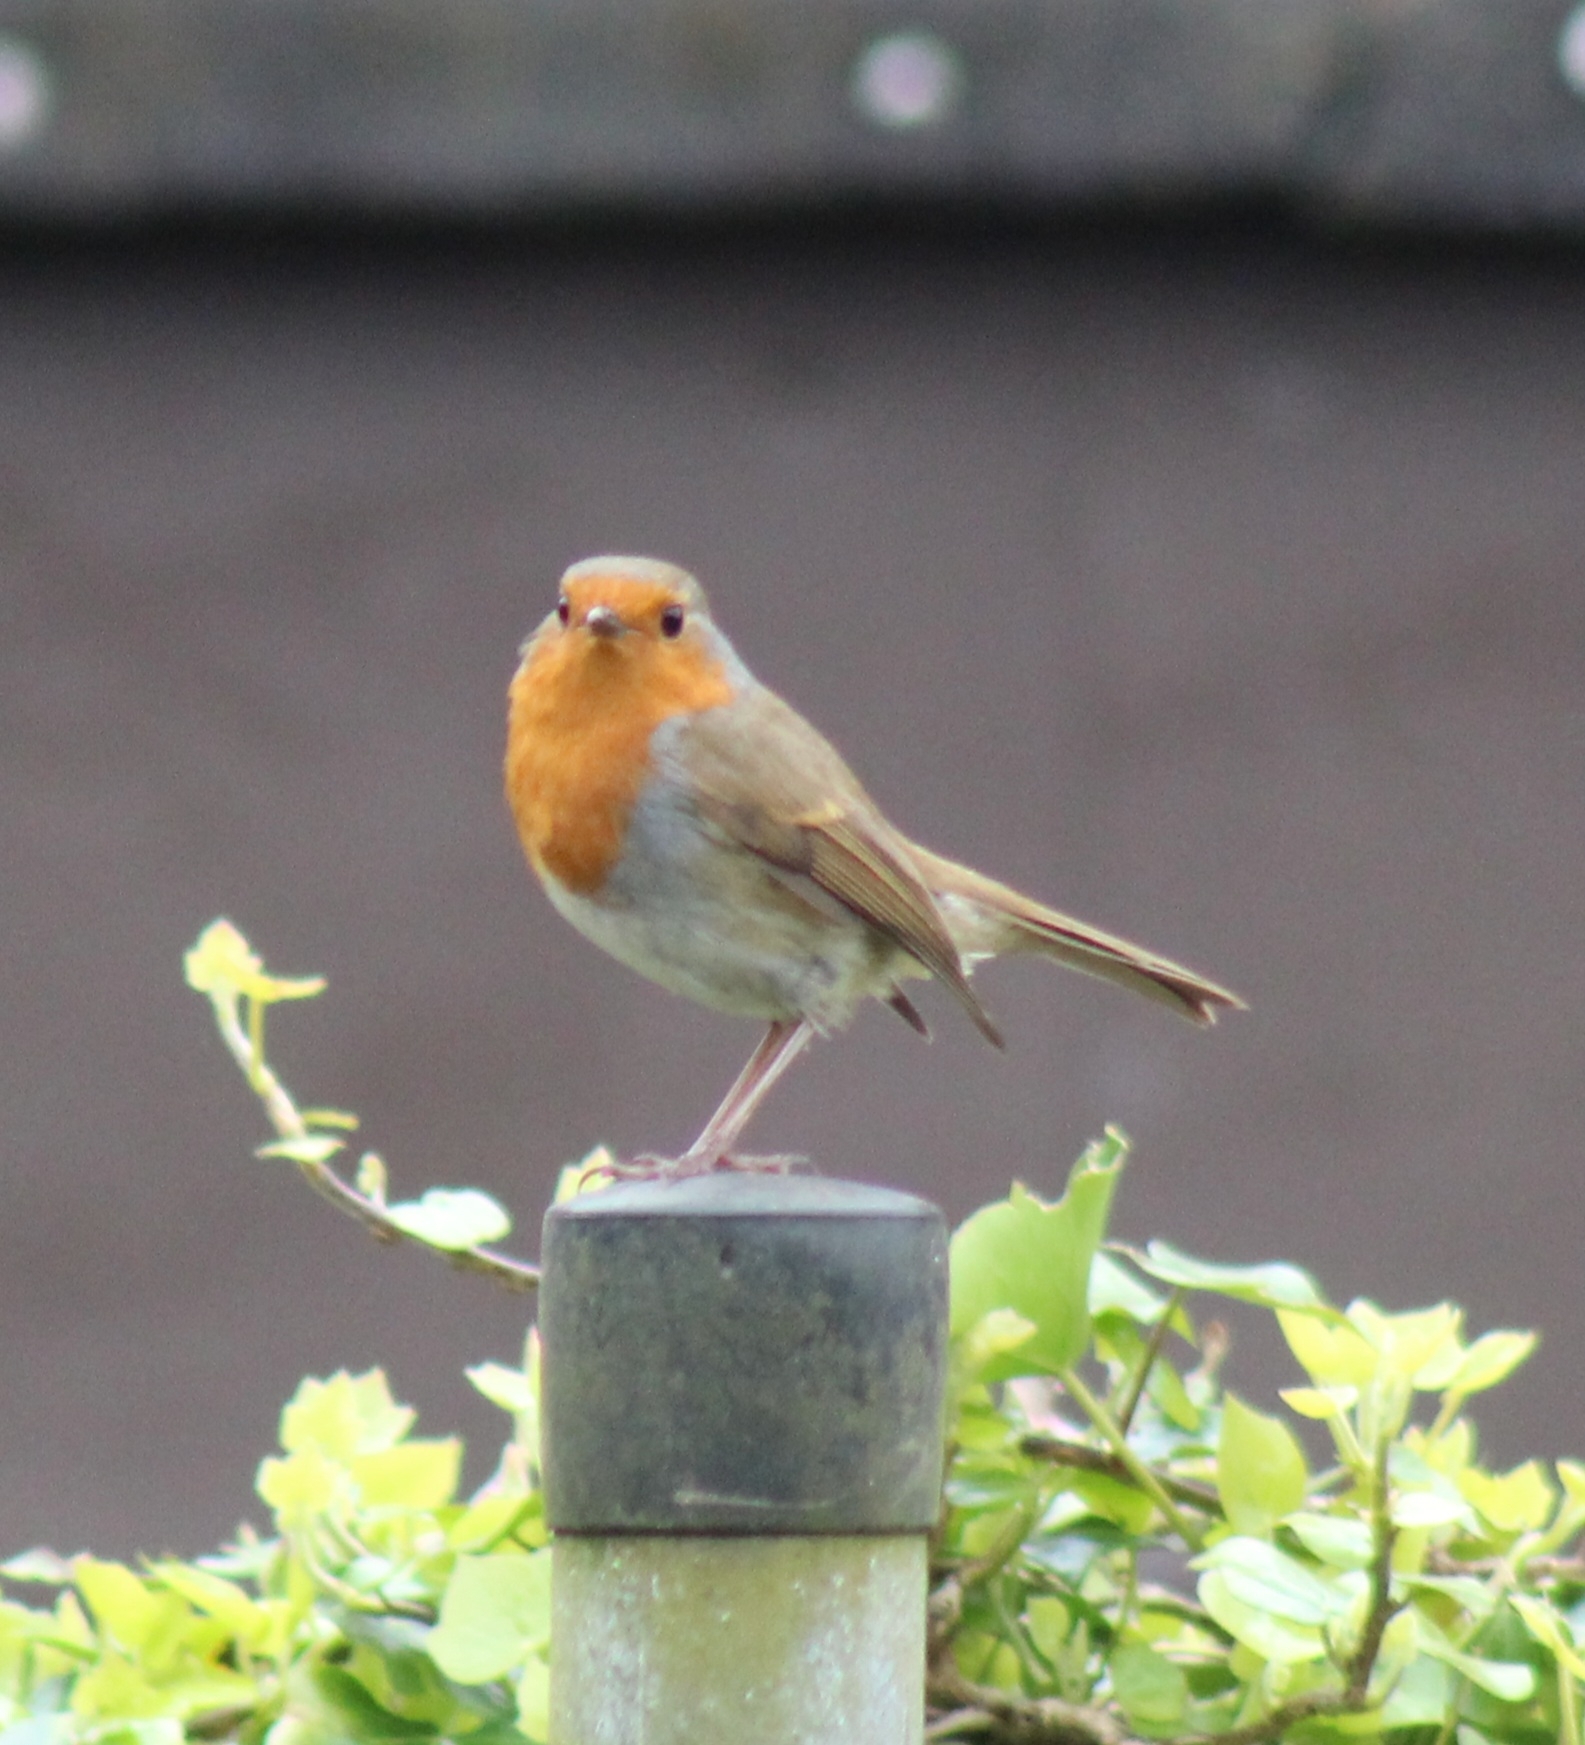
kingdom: Animalia
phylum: Chordata
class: Aves
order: Passeriformes
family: Muscicapidae
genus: Erithacus
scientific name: Erithacus rubecula
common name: European robin
